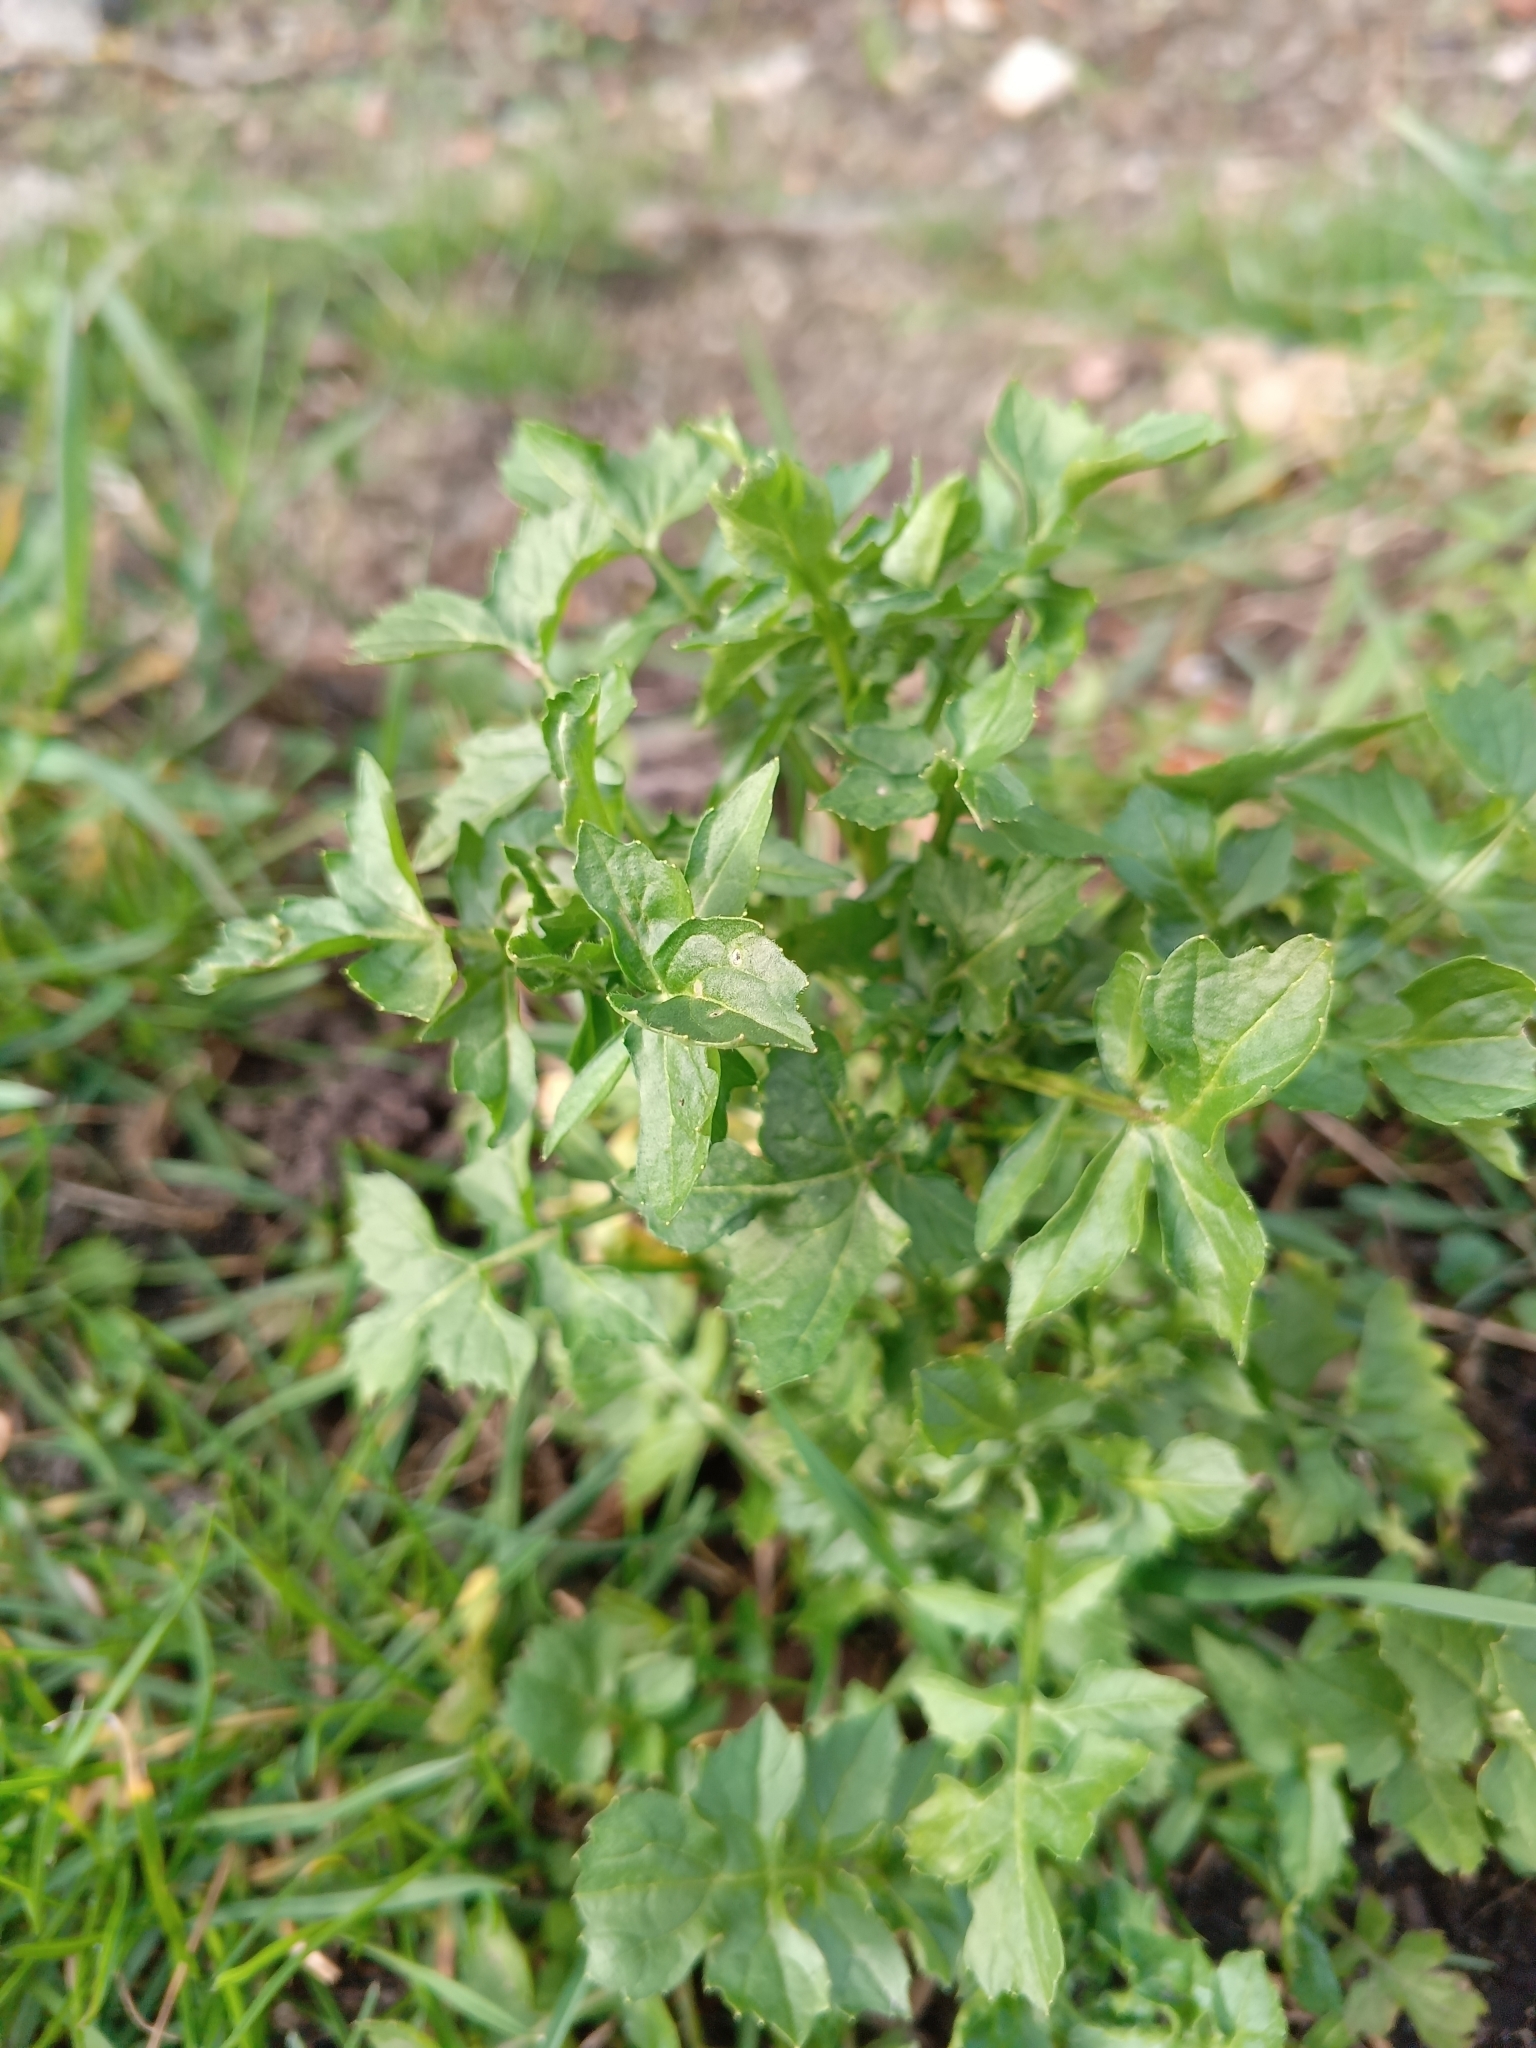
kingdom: Plantae
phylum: Tracheophyta
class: Magnoliopsida
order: Brassicales
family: Brassicaceae
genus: Sisymbrium
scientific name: Sisymbrium officinale
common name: Hedge mustard
